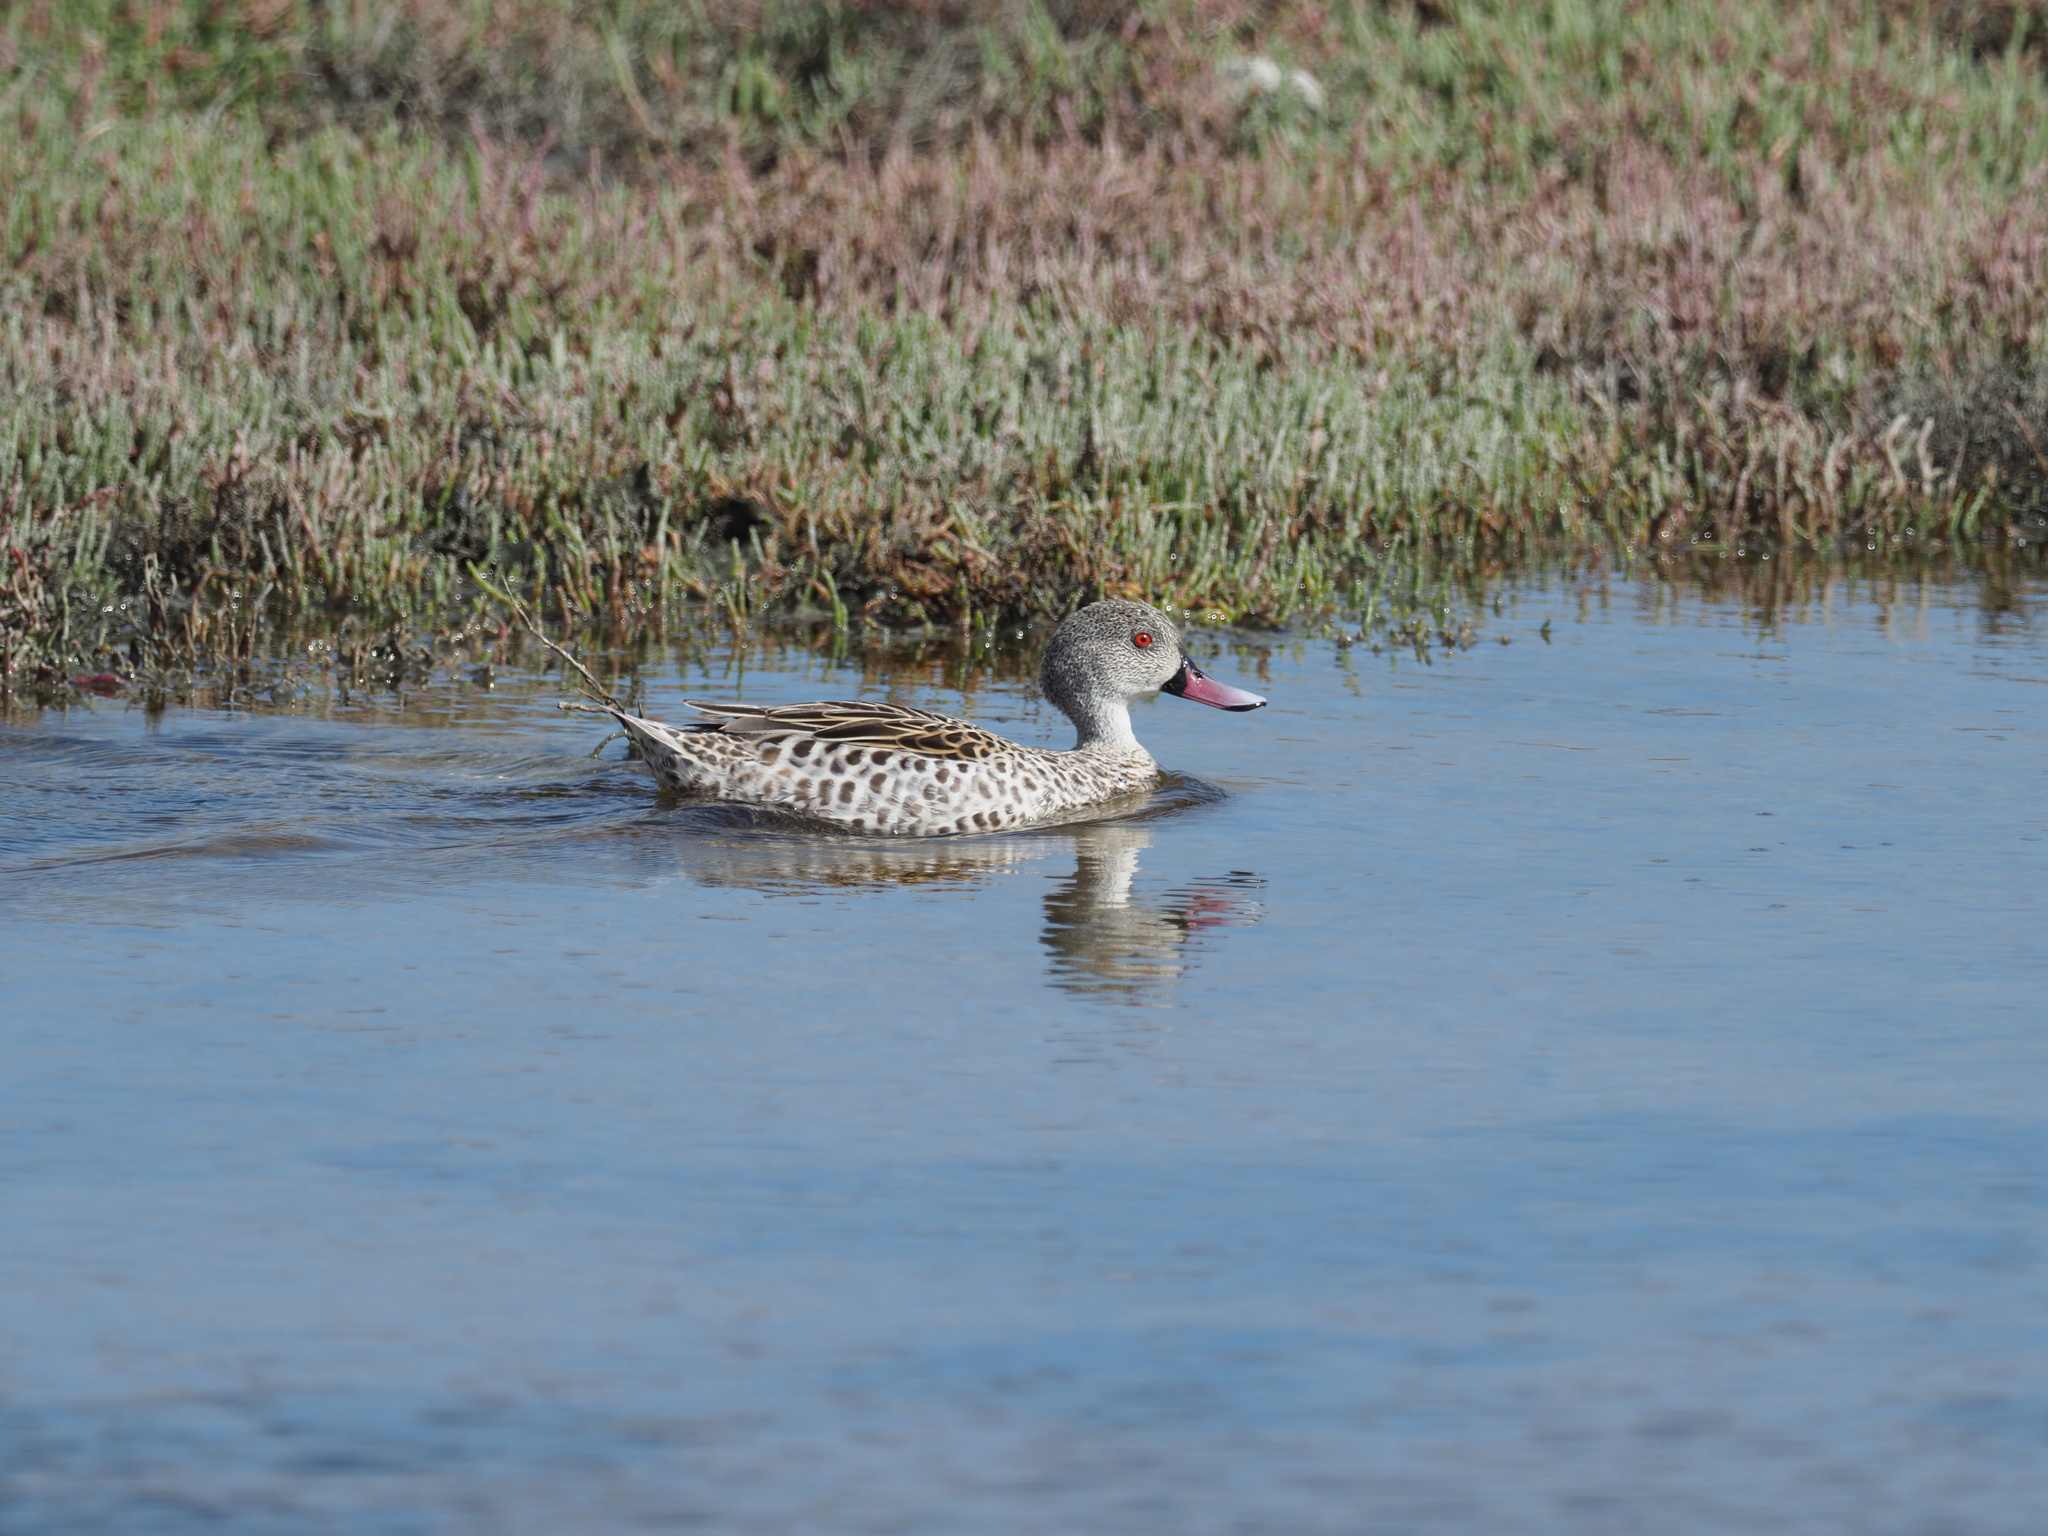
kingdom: Animalia
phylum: Chordata
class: Aves
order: Anseriformes
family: Anatidae
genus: Anas
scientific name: Anas capensis
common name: Cape teal
